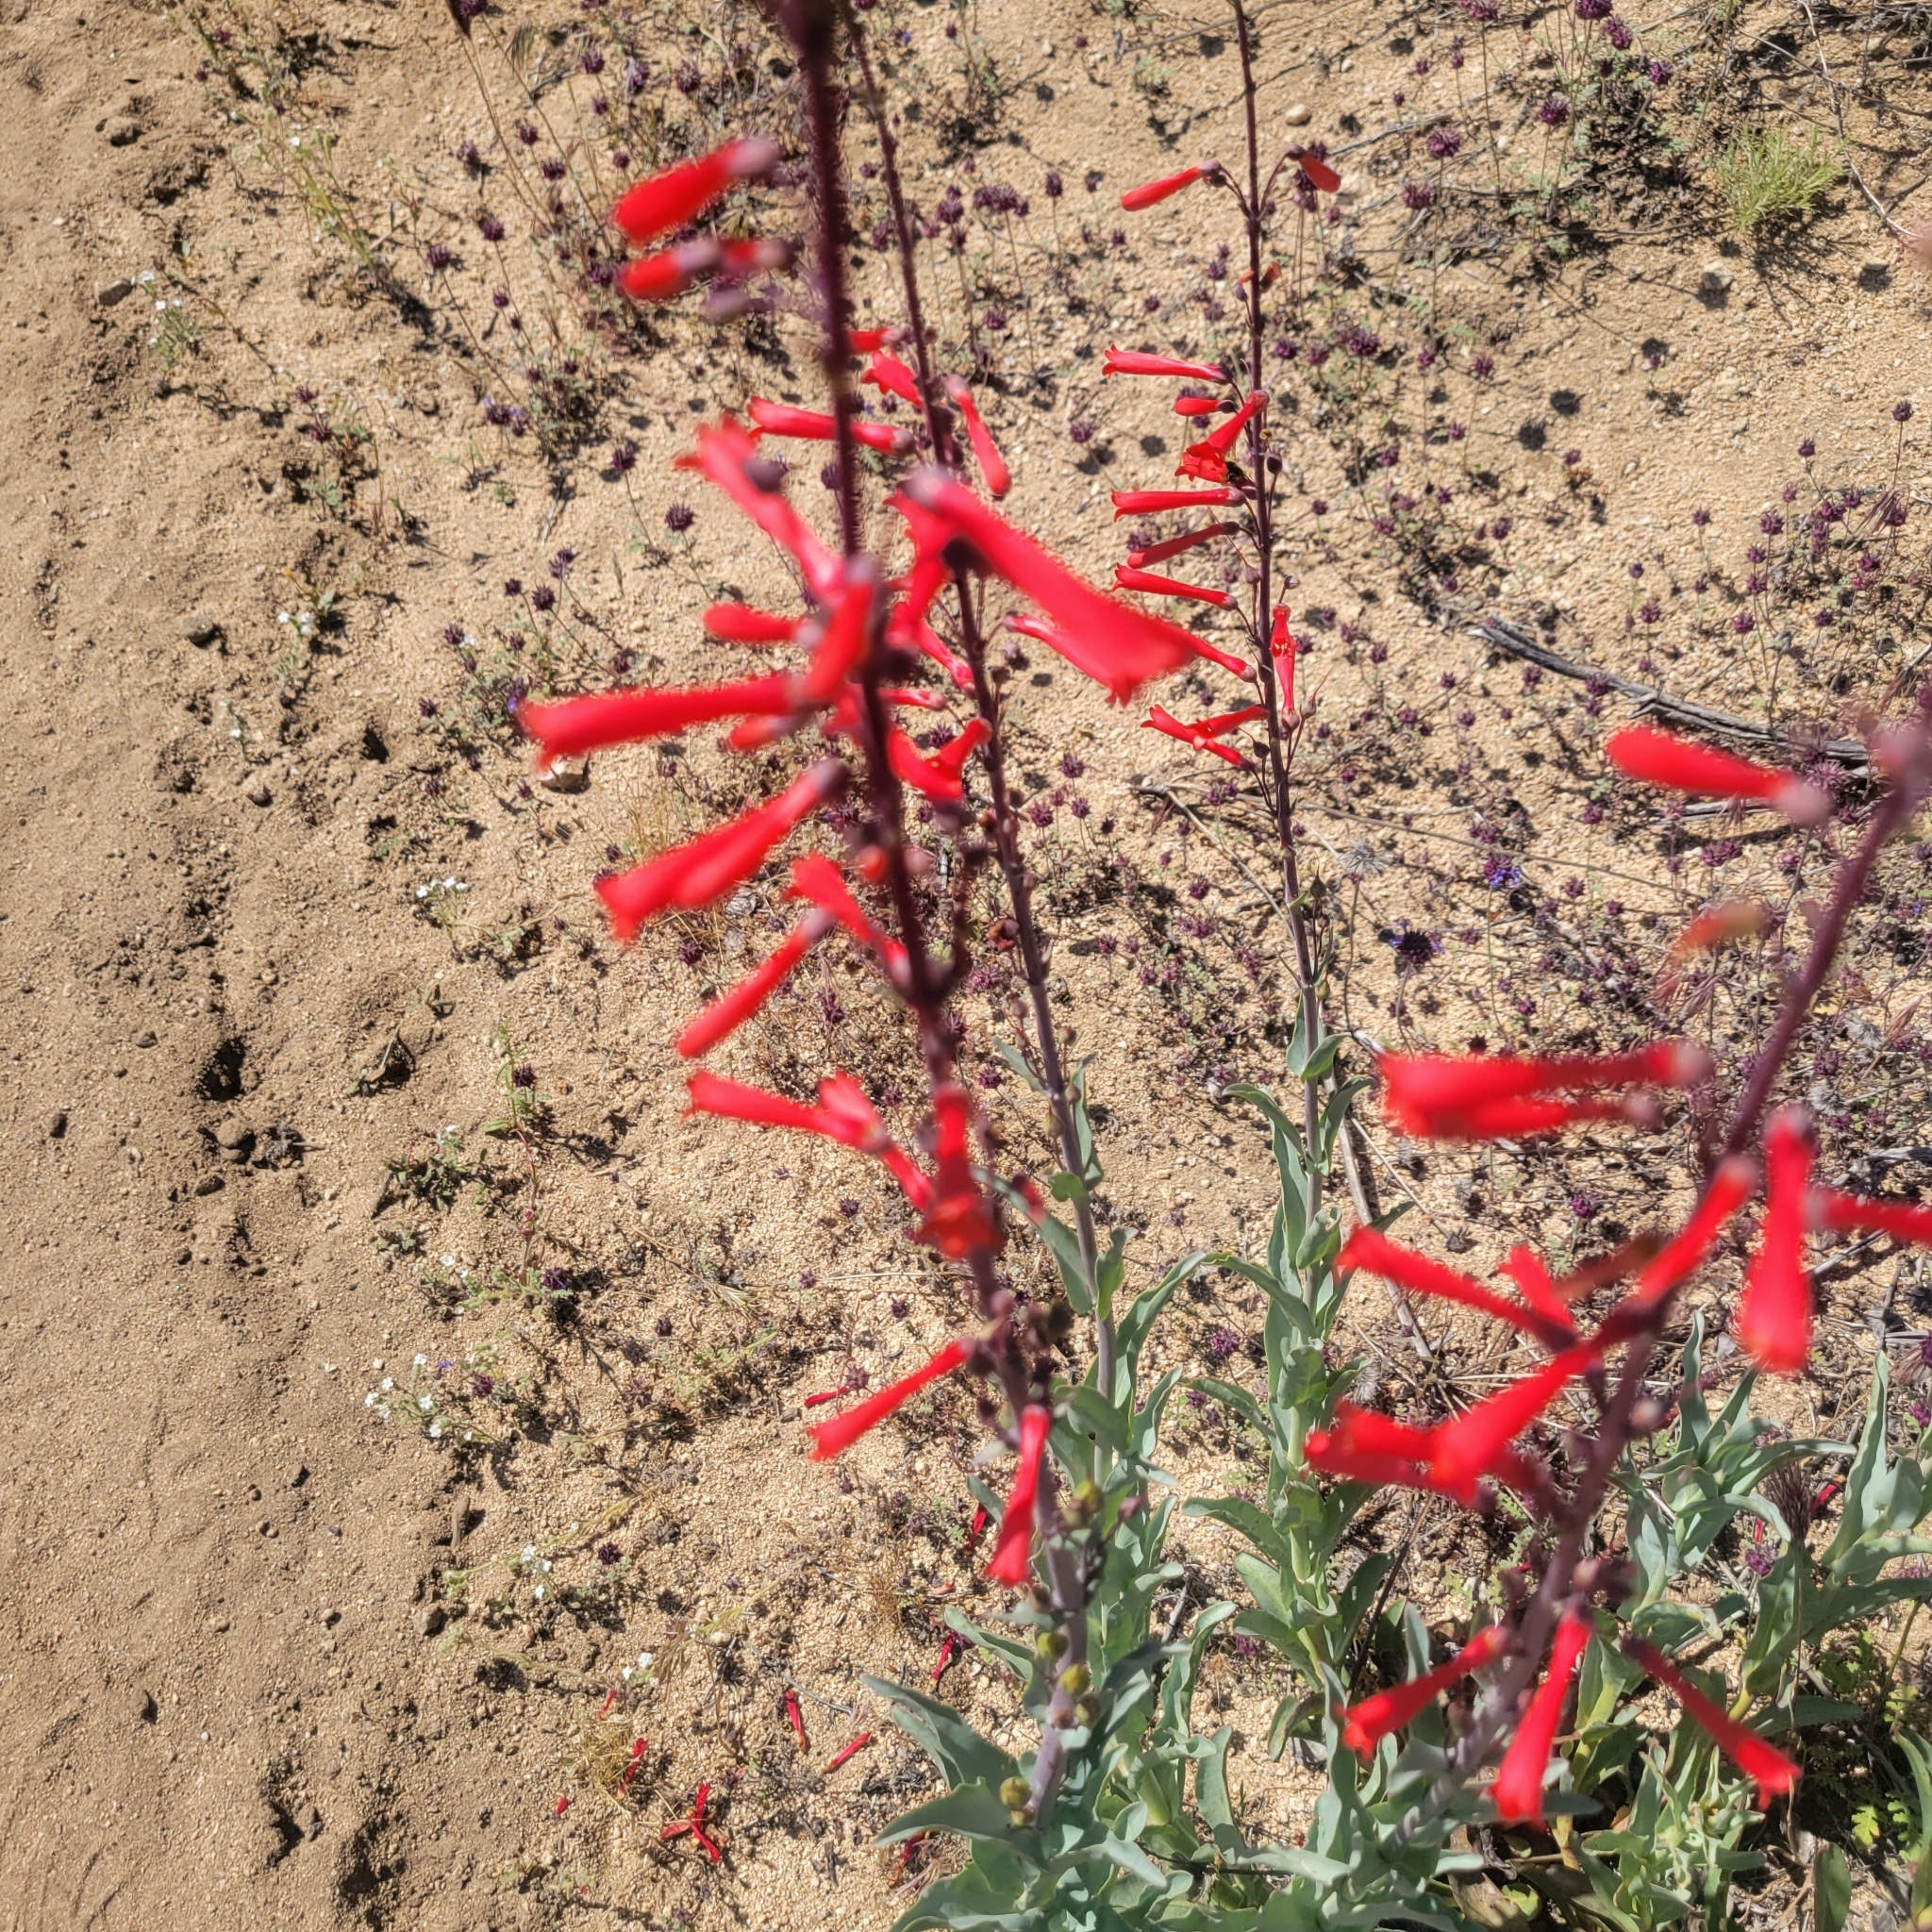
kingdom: Plantae
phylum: Tracheophyta
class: Magnoliopsida
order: Lamiales
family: Plantaginaceae
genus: Penstemon
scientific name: Penstemon centranthifolius
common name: Scarlet bugler
